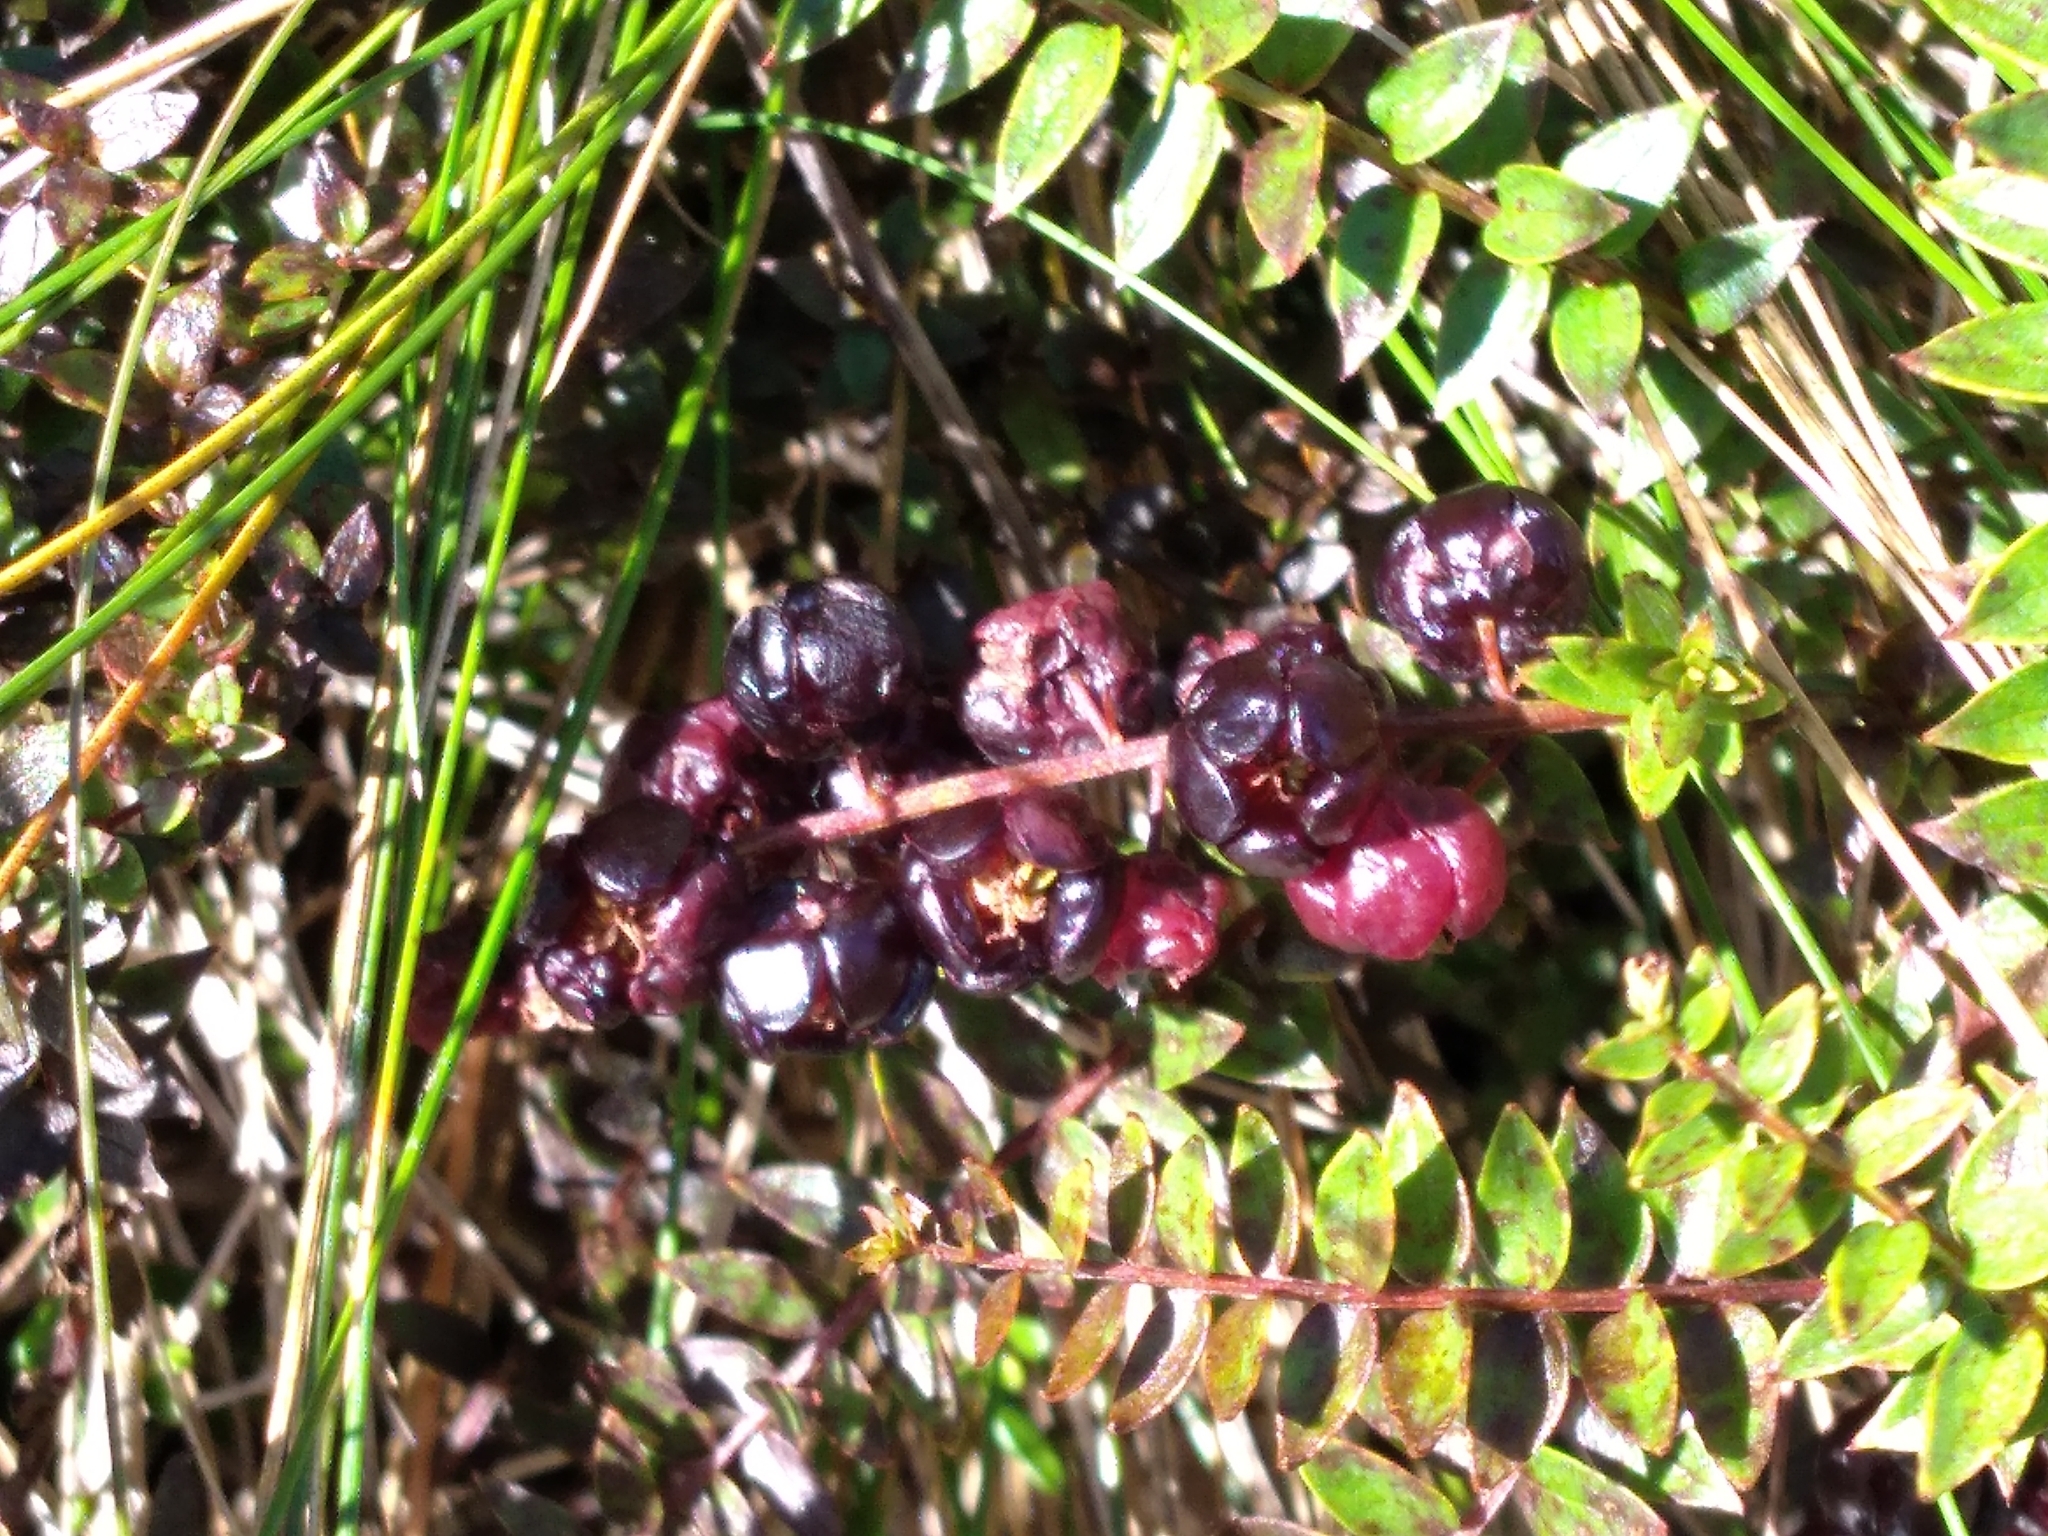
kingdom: Plantae
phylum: Tracheophyta
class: Magnoliopsida
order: Cucurbitales
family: Coriariaceae
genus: Coriaria
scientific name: Coriaria plumosa
